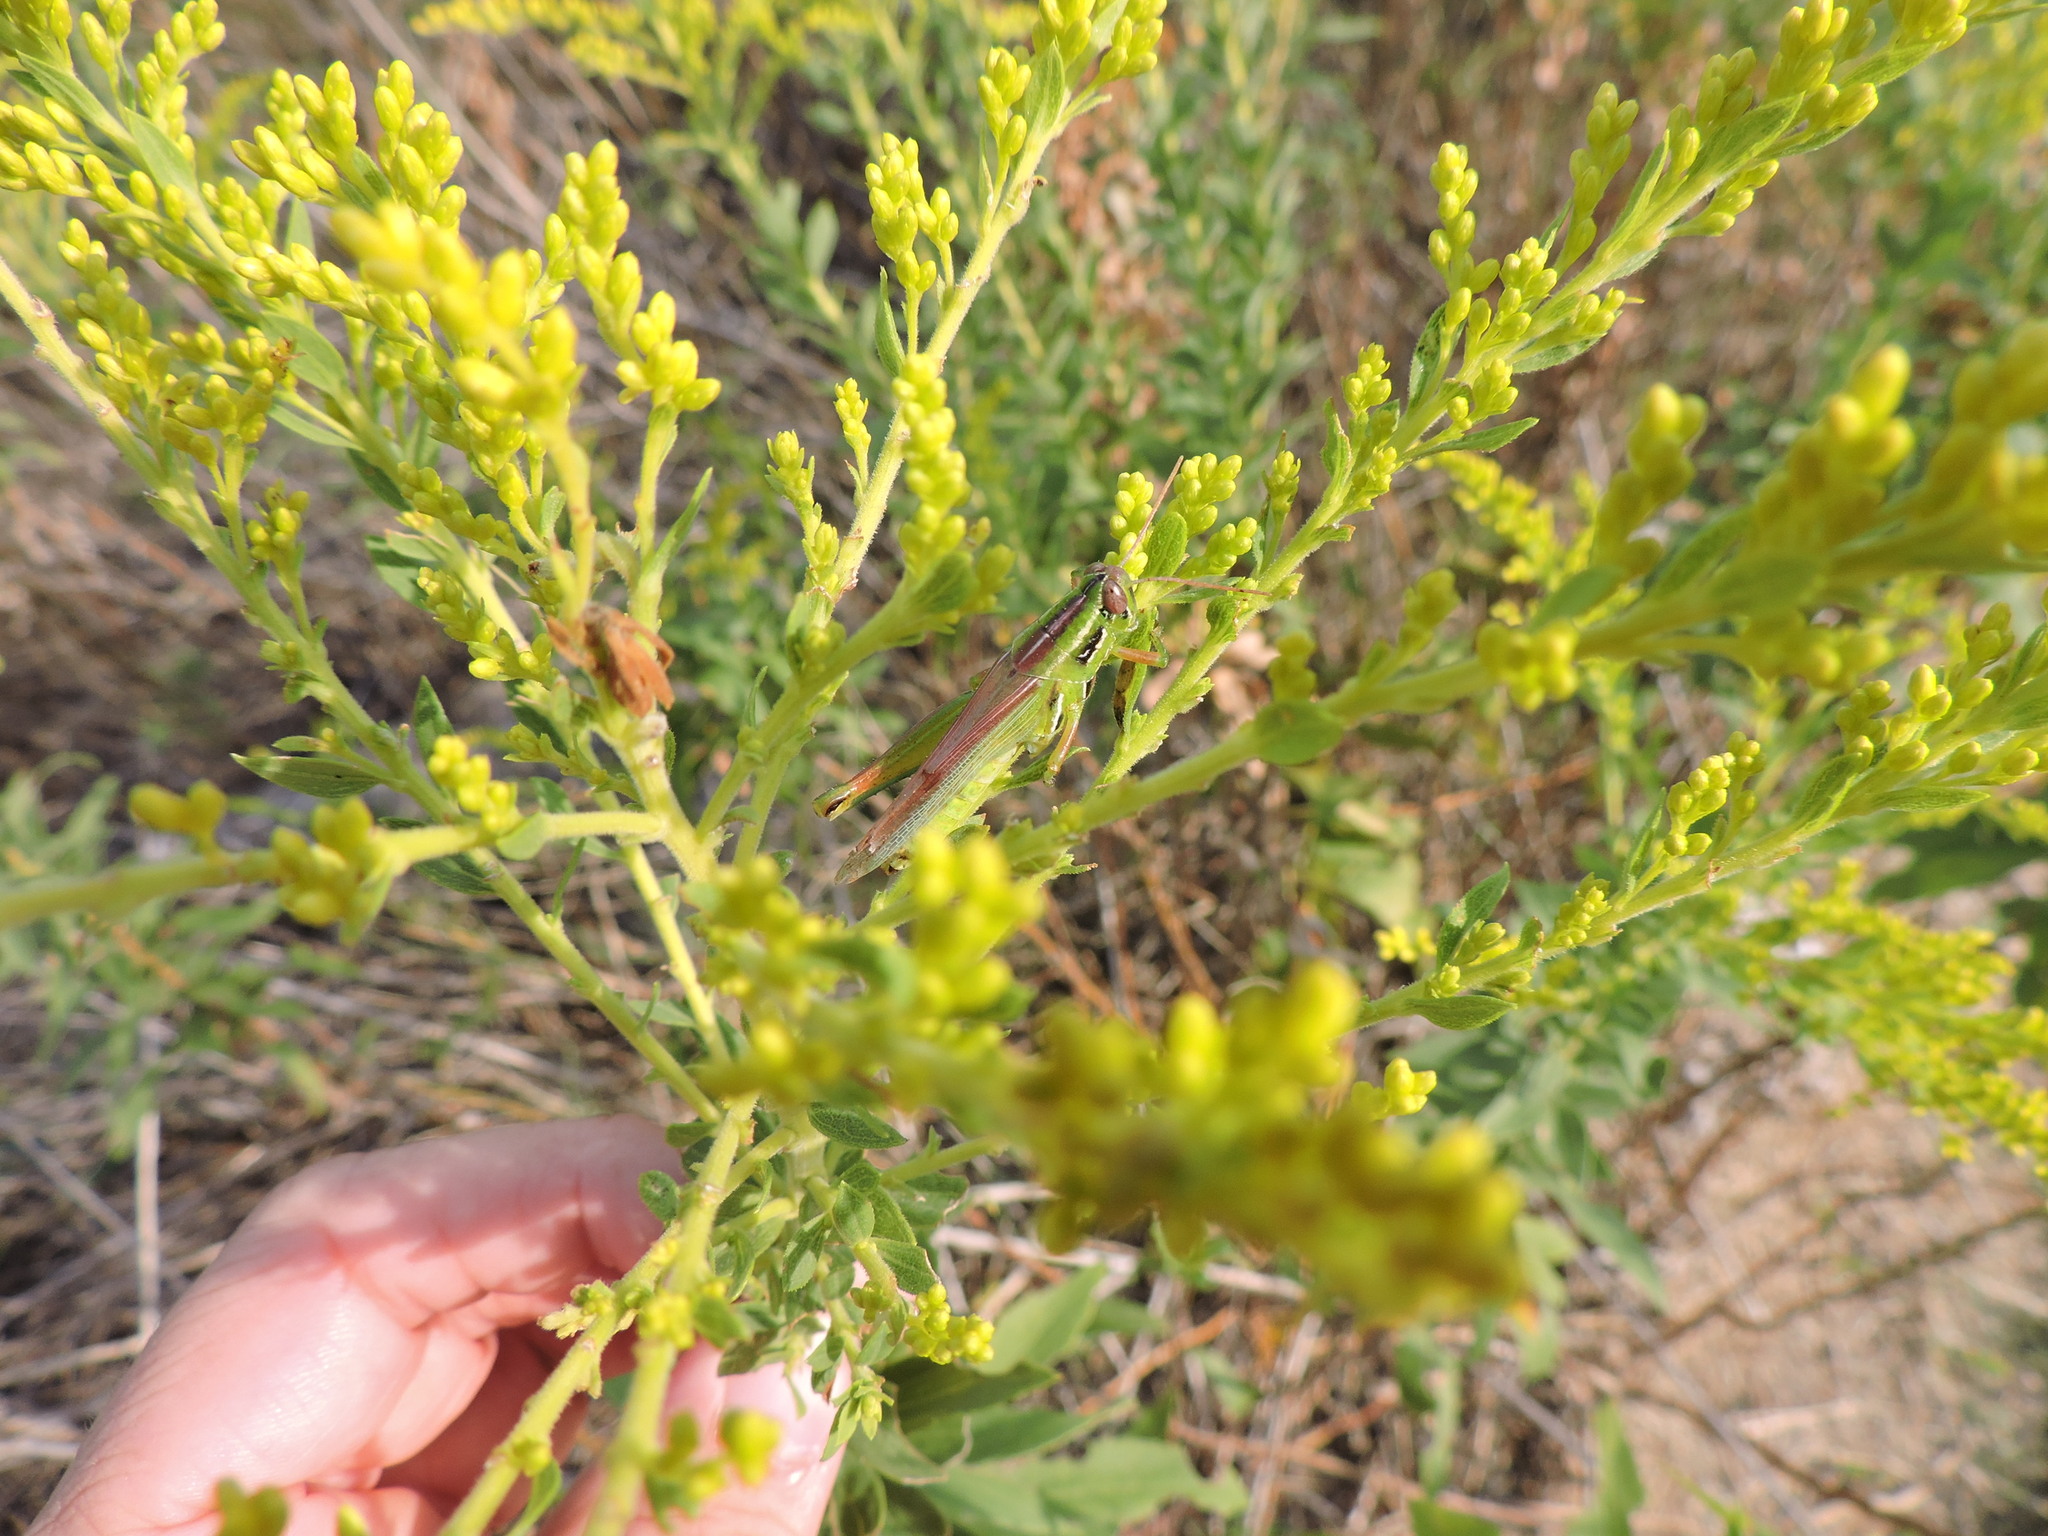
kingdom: Animalia
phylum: Arthropoda
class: Insecta
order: Orthoptera
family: Acrididae
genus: Hesperotettix
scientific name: Hesperotettix viridis
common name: Meadow purple-striped grasshopper
